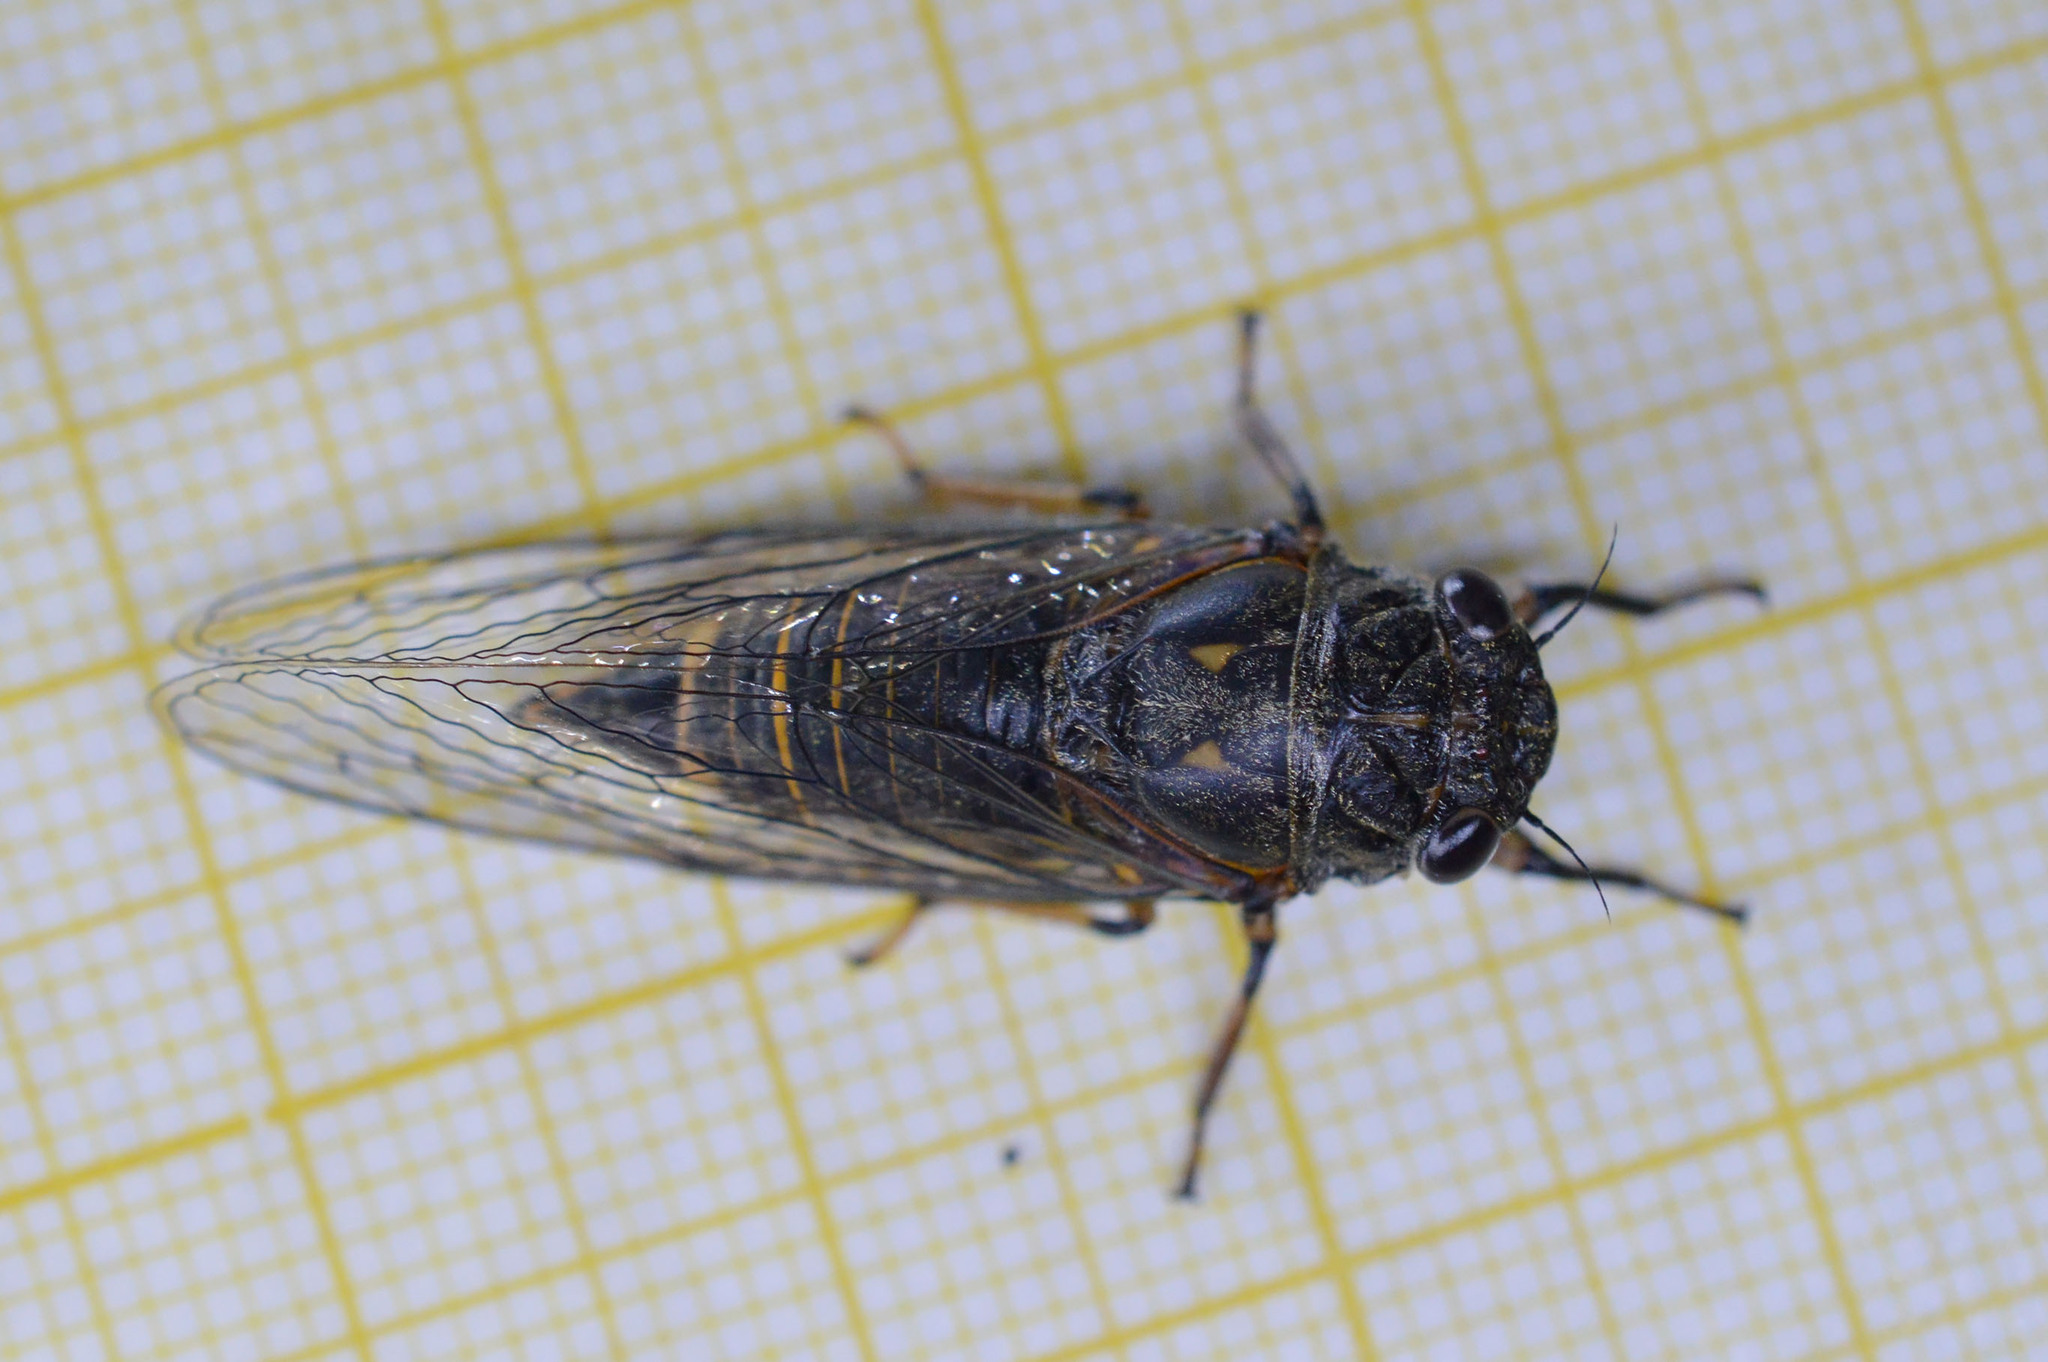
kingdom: Animalia
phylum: Arthropoda
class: Insecta
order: Hemiptera
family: Cicadidae
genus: Dimissalna
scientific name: Dimissalna dimissa
